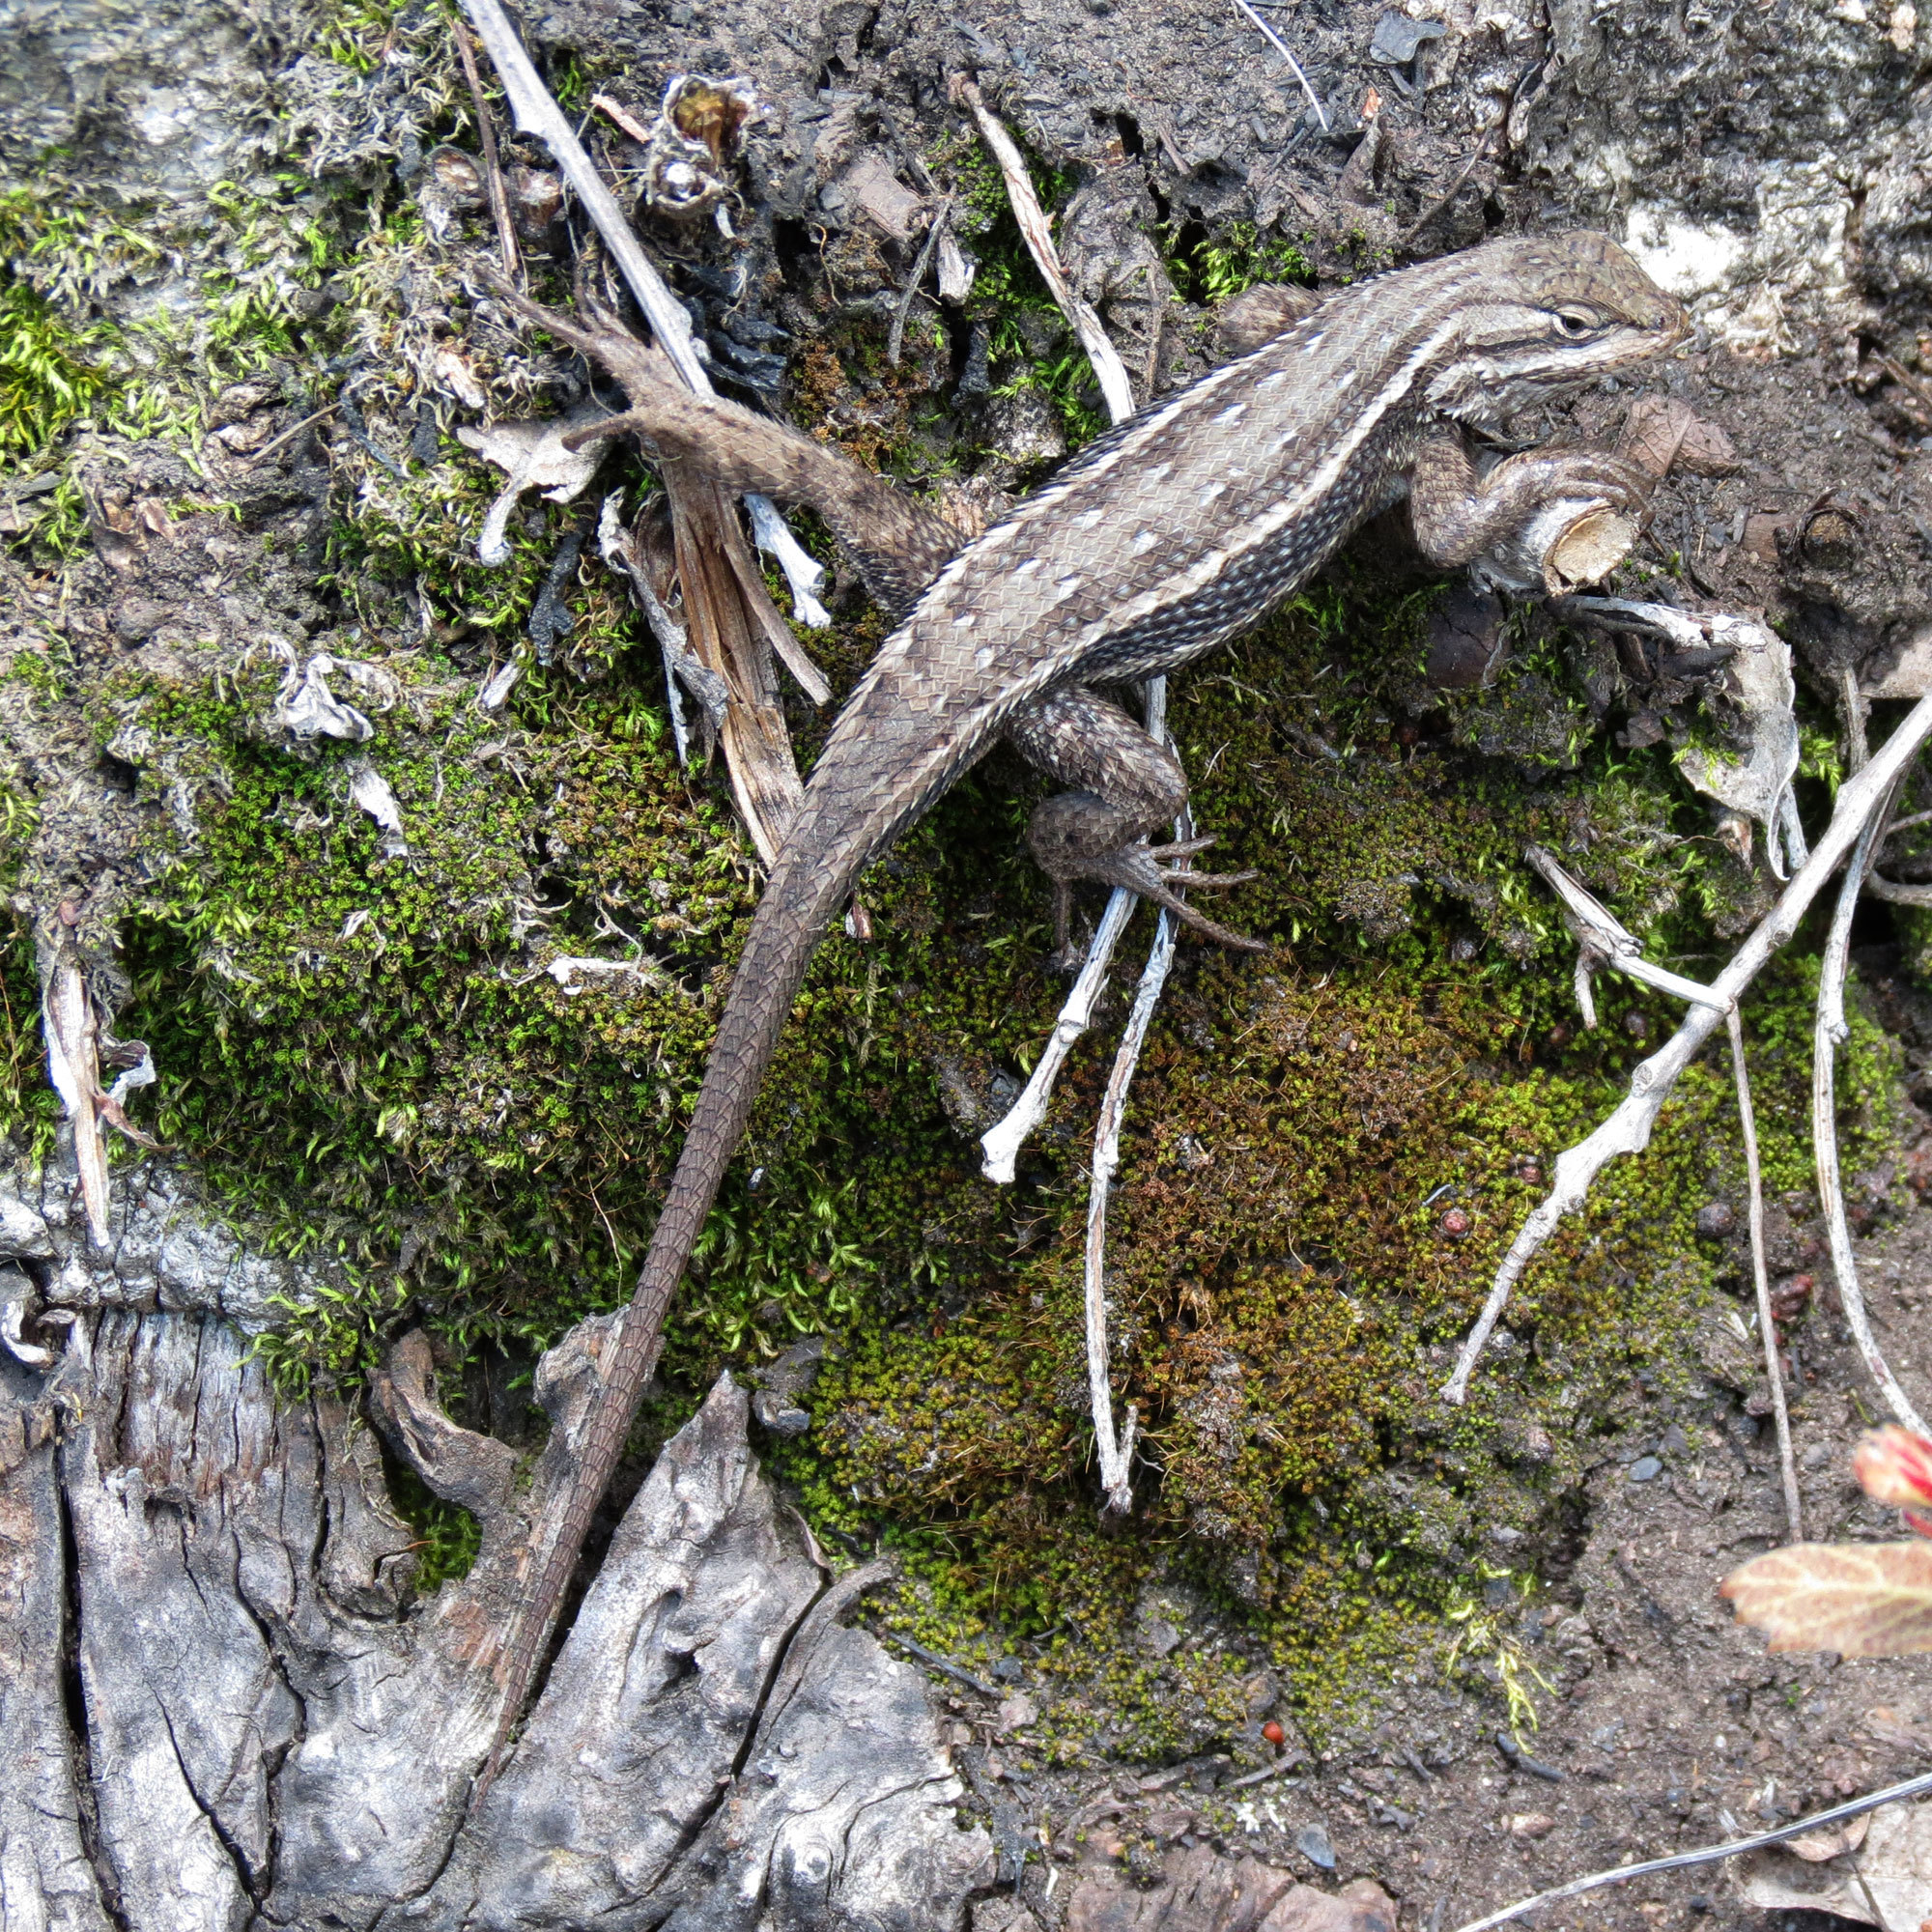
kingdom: Animalia
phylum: Chordata
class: Squamata
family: Phrynosomatidae
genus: Sceloporus
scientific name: Sceloporus cowlesi
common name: White sands prairie lizard
